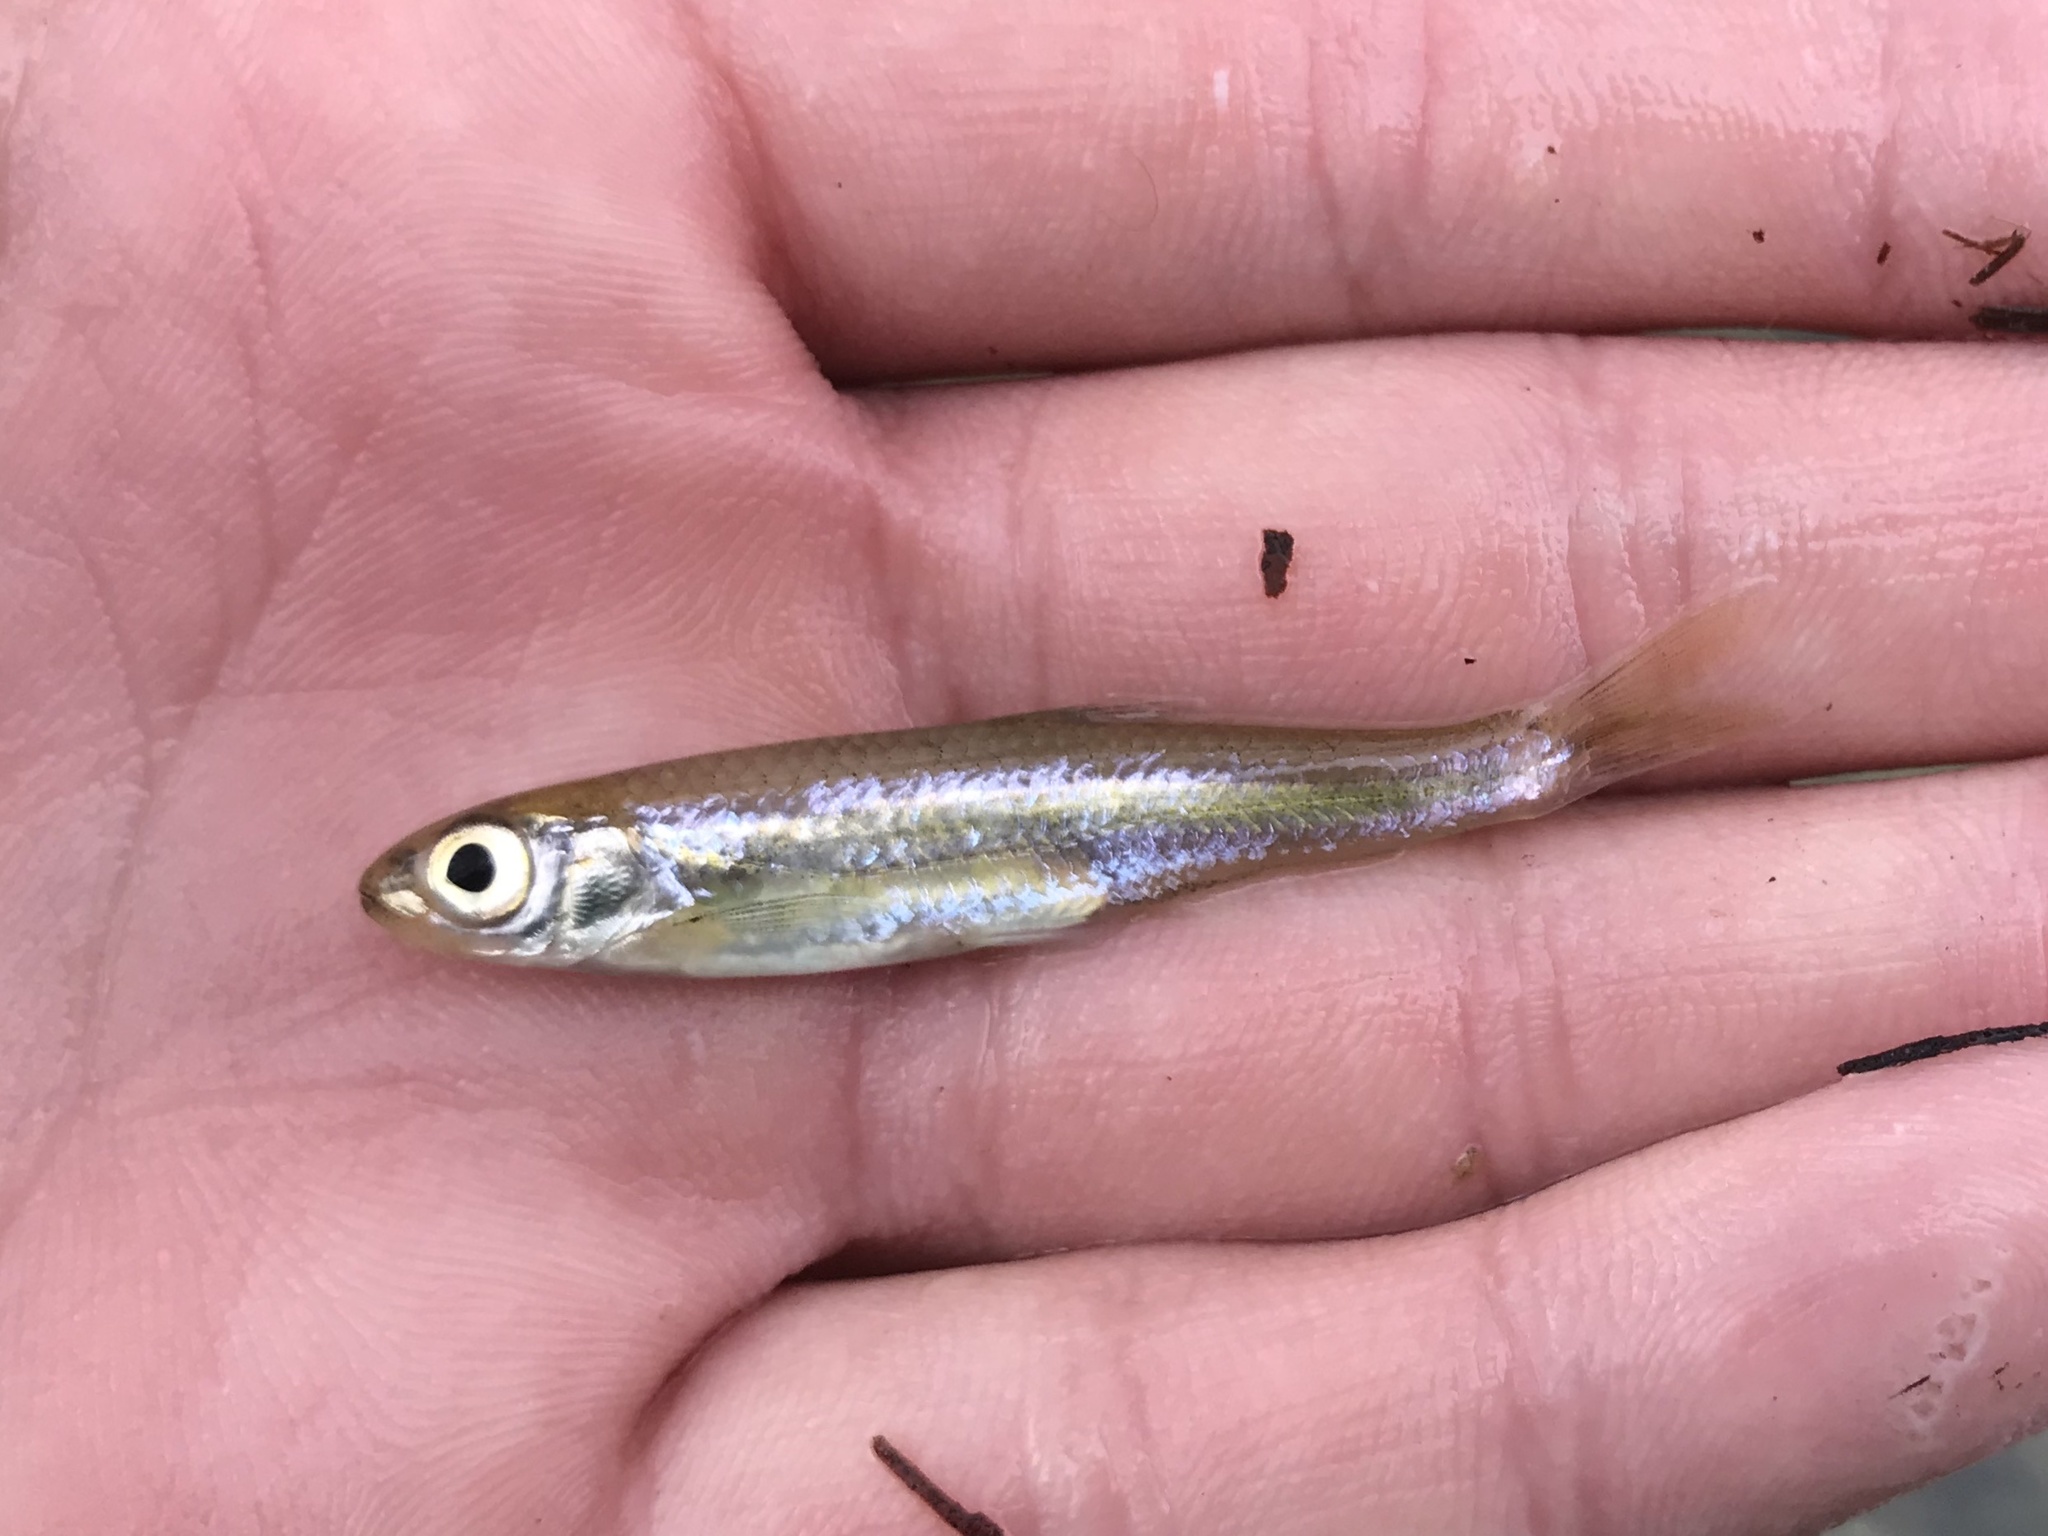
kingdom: Animalia
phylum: Chordata
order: Cypriniformes
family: Cyprinidae
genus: Notropis
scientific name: Notropis amabilis
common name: Texas shiner
